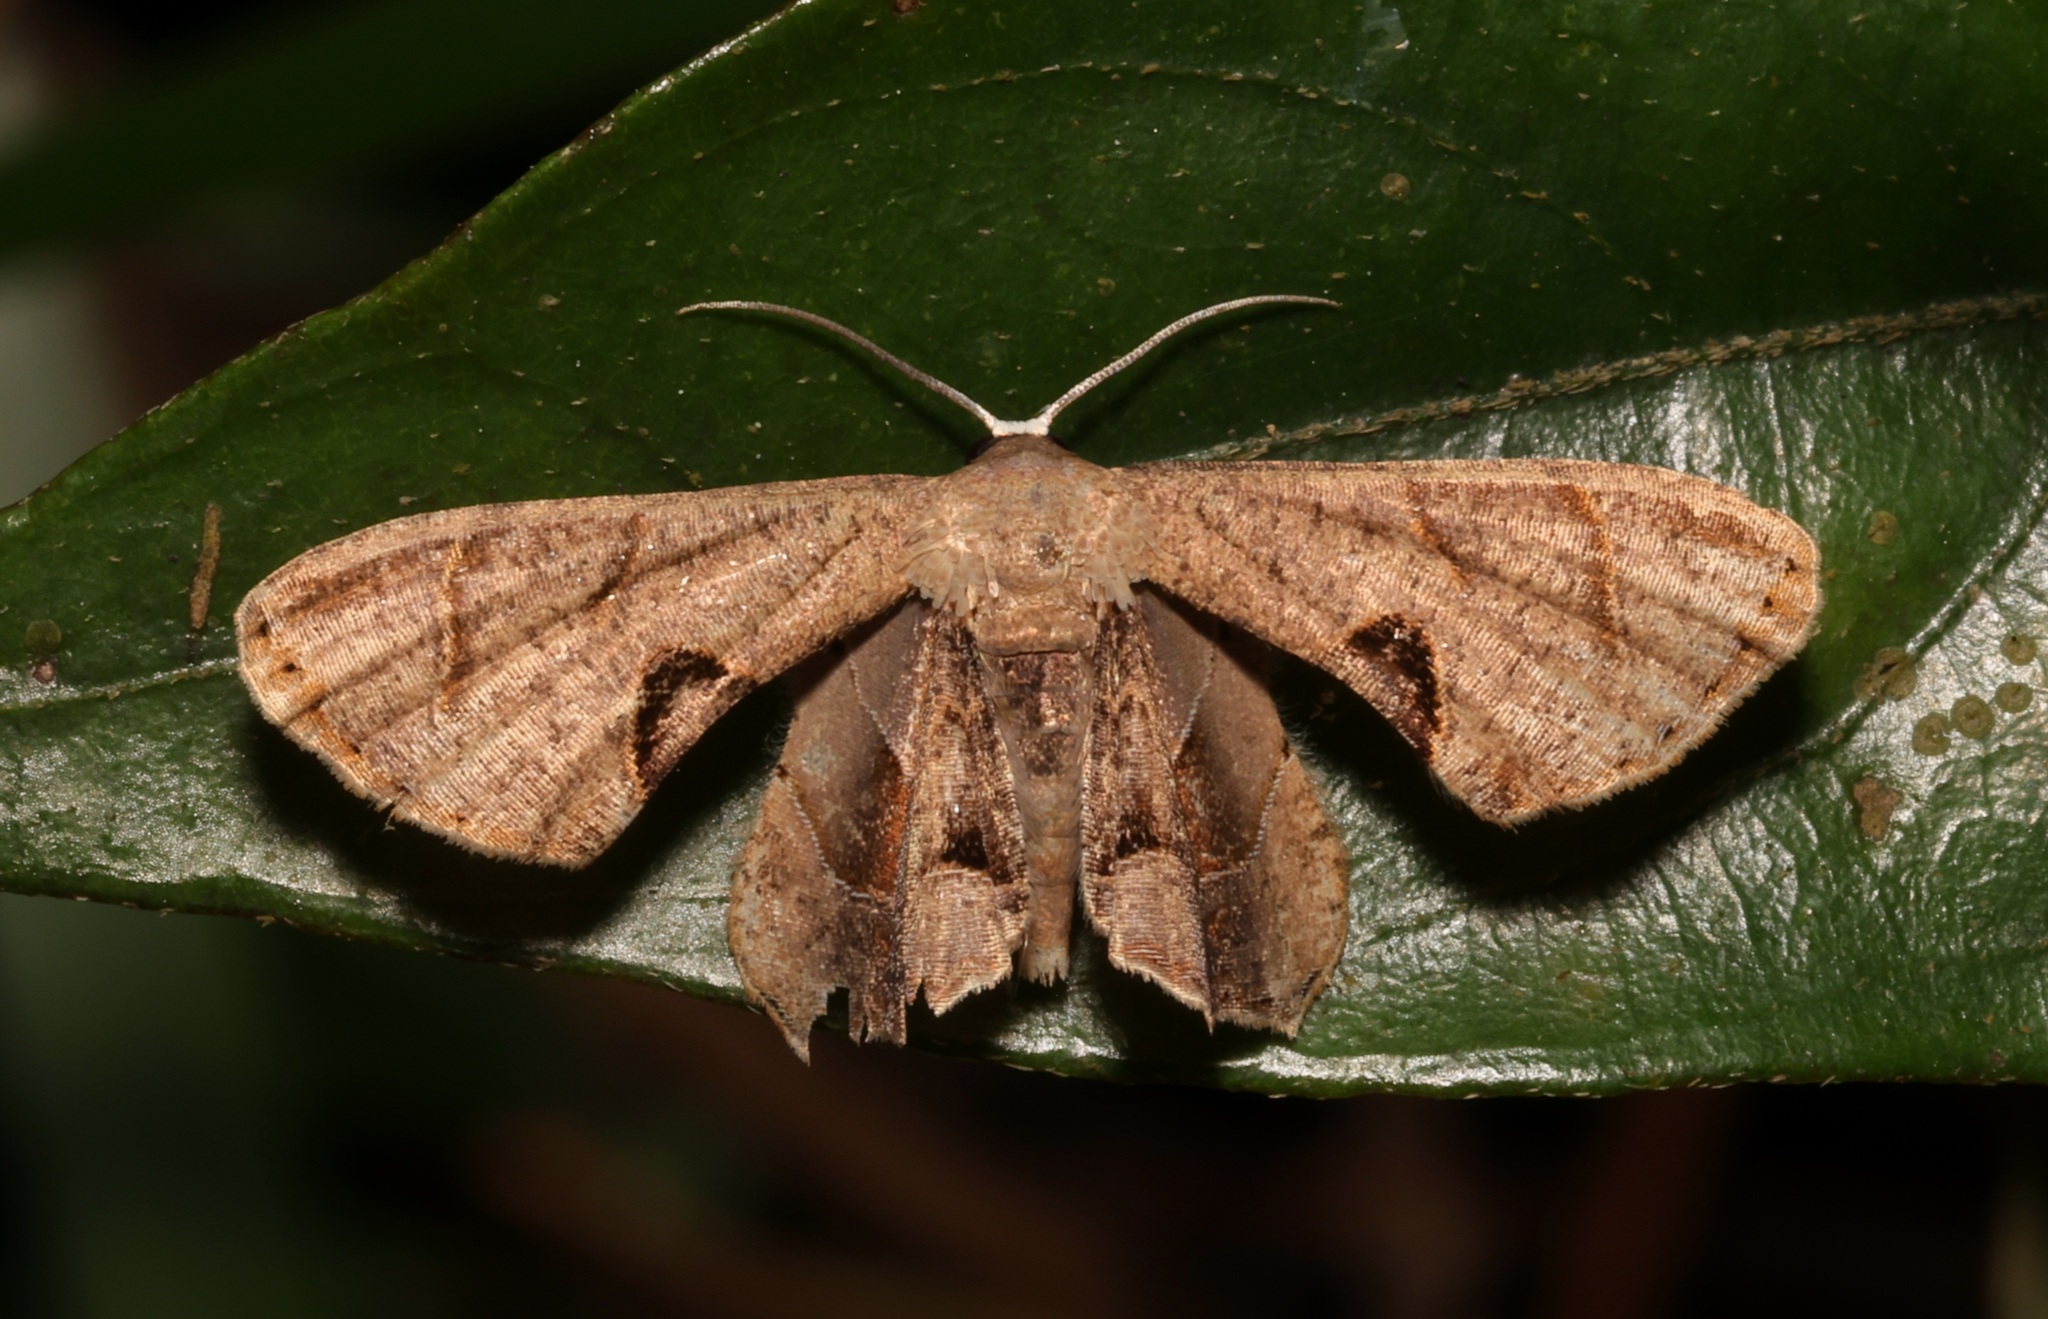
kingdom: Animalia
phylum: Arthropoda
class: Insecta
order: Lepidoptera
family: Uraniidae
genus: Phazaca
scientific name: Phazaca leucocera
